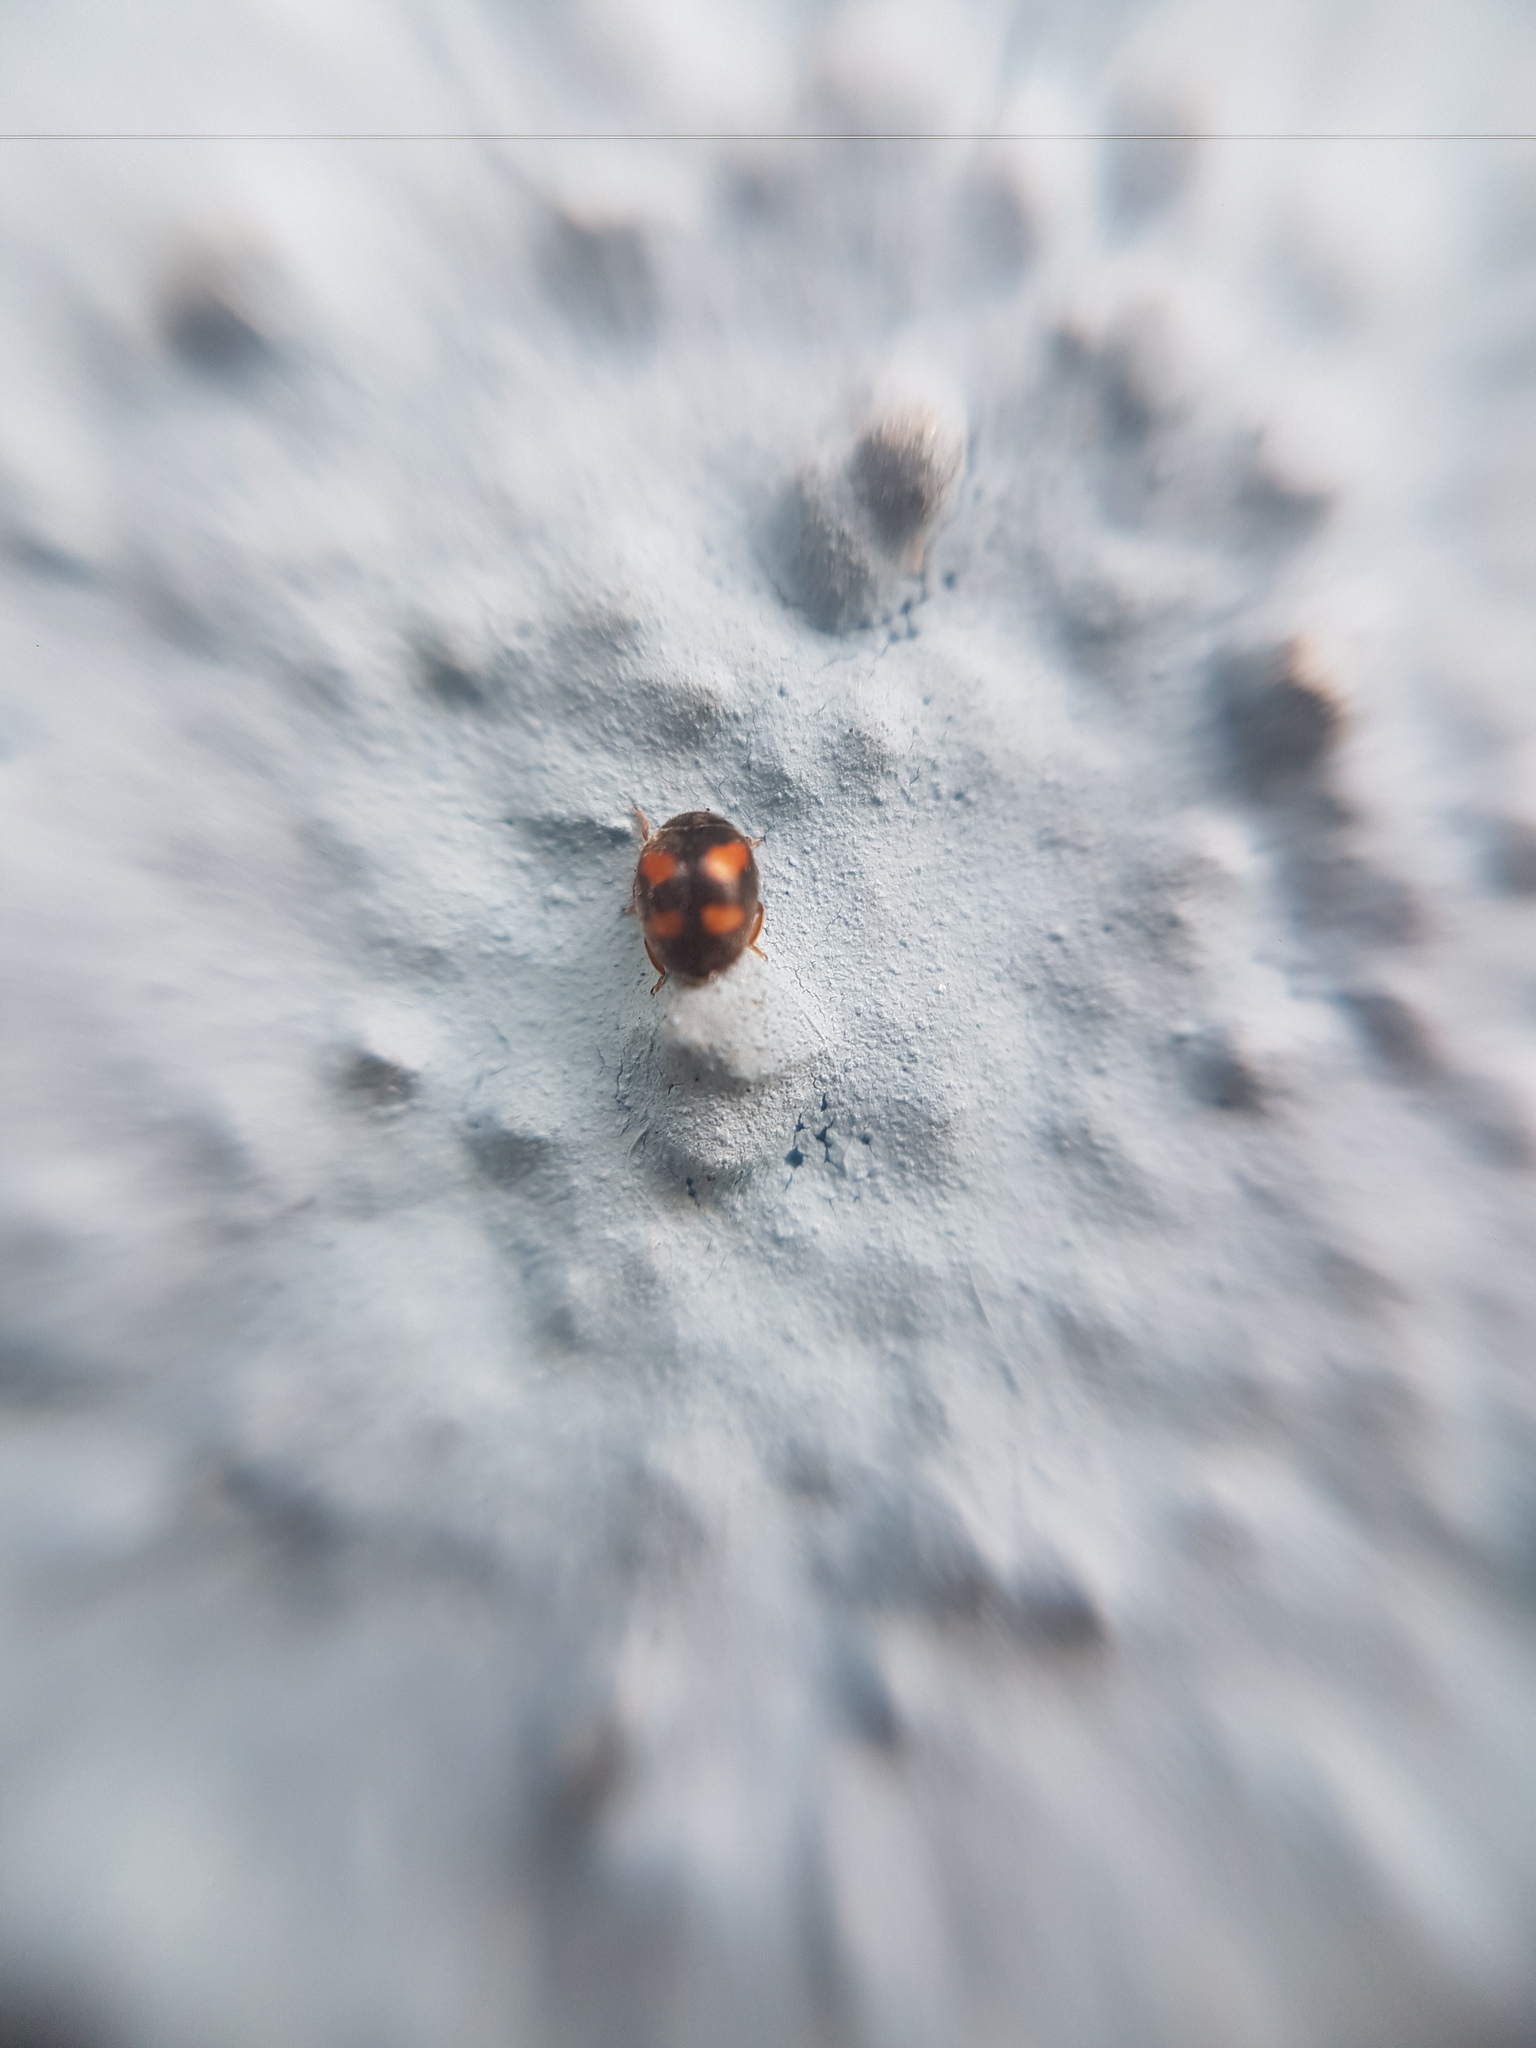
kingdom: Animalia
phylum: Arthropoda
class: Insecta
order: Coleoptera
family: Coccinellidae
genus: Nephus
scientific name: Nephus quadrimaculatus
